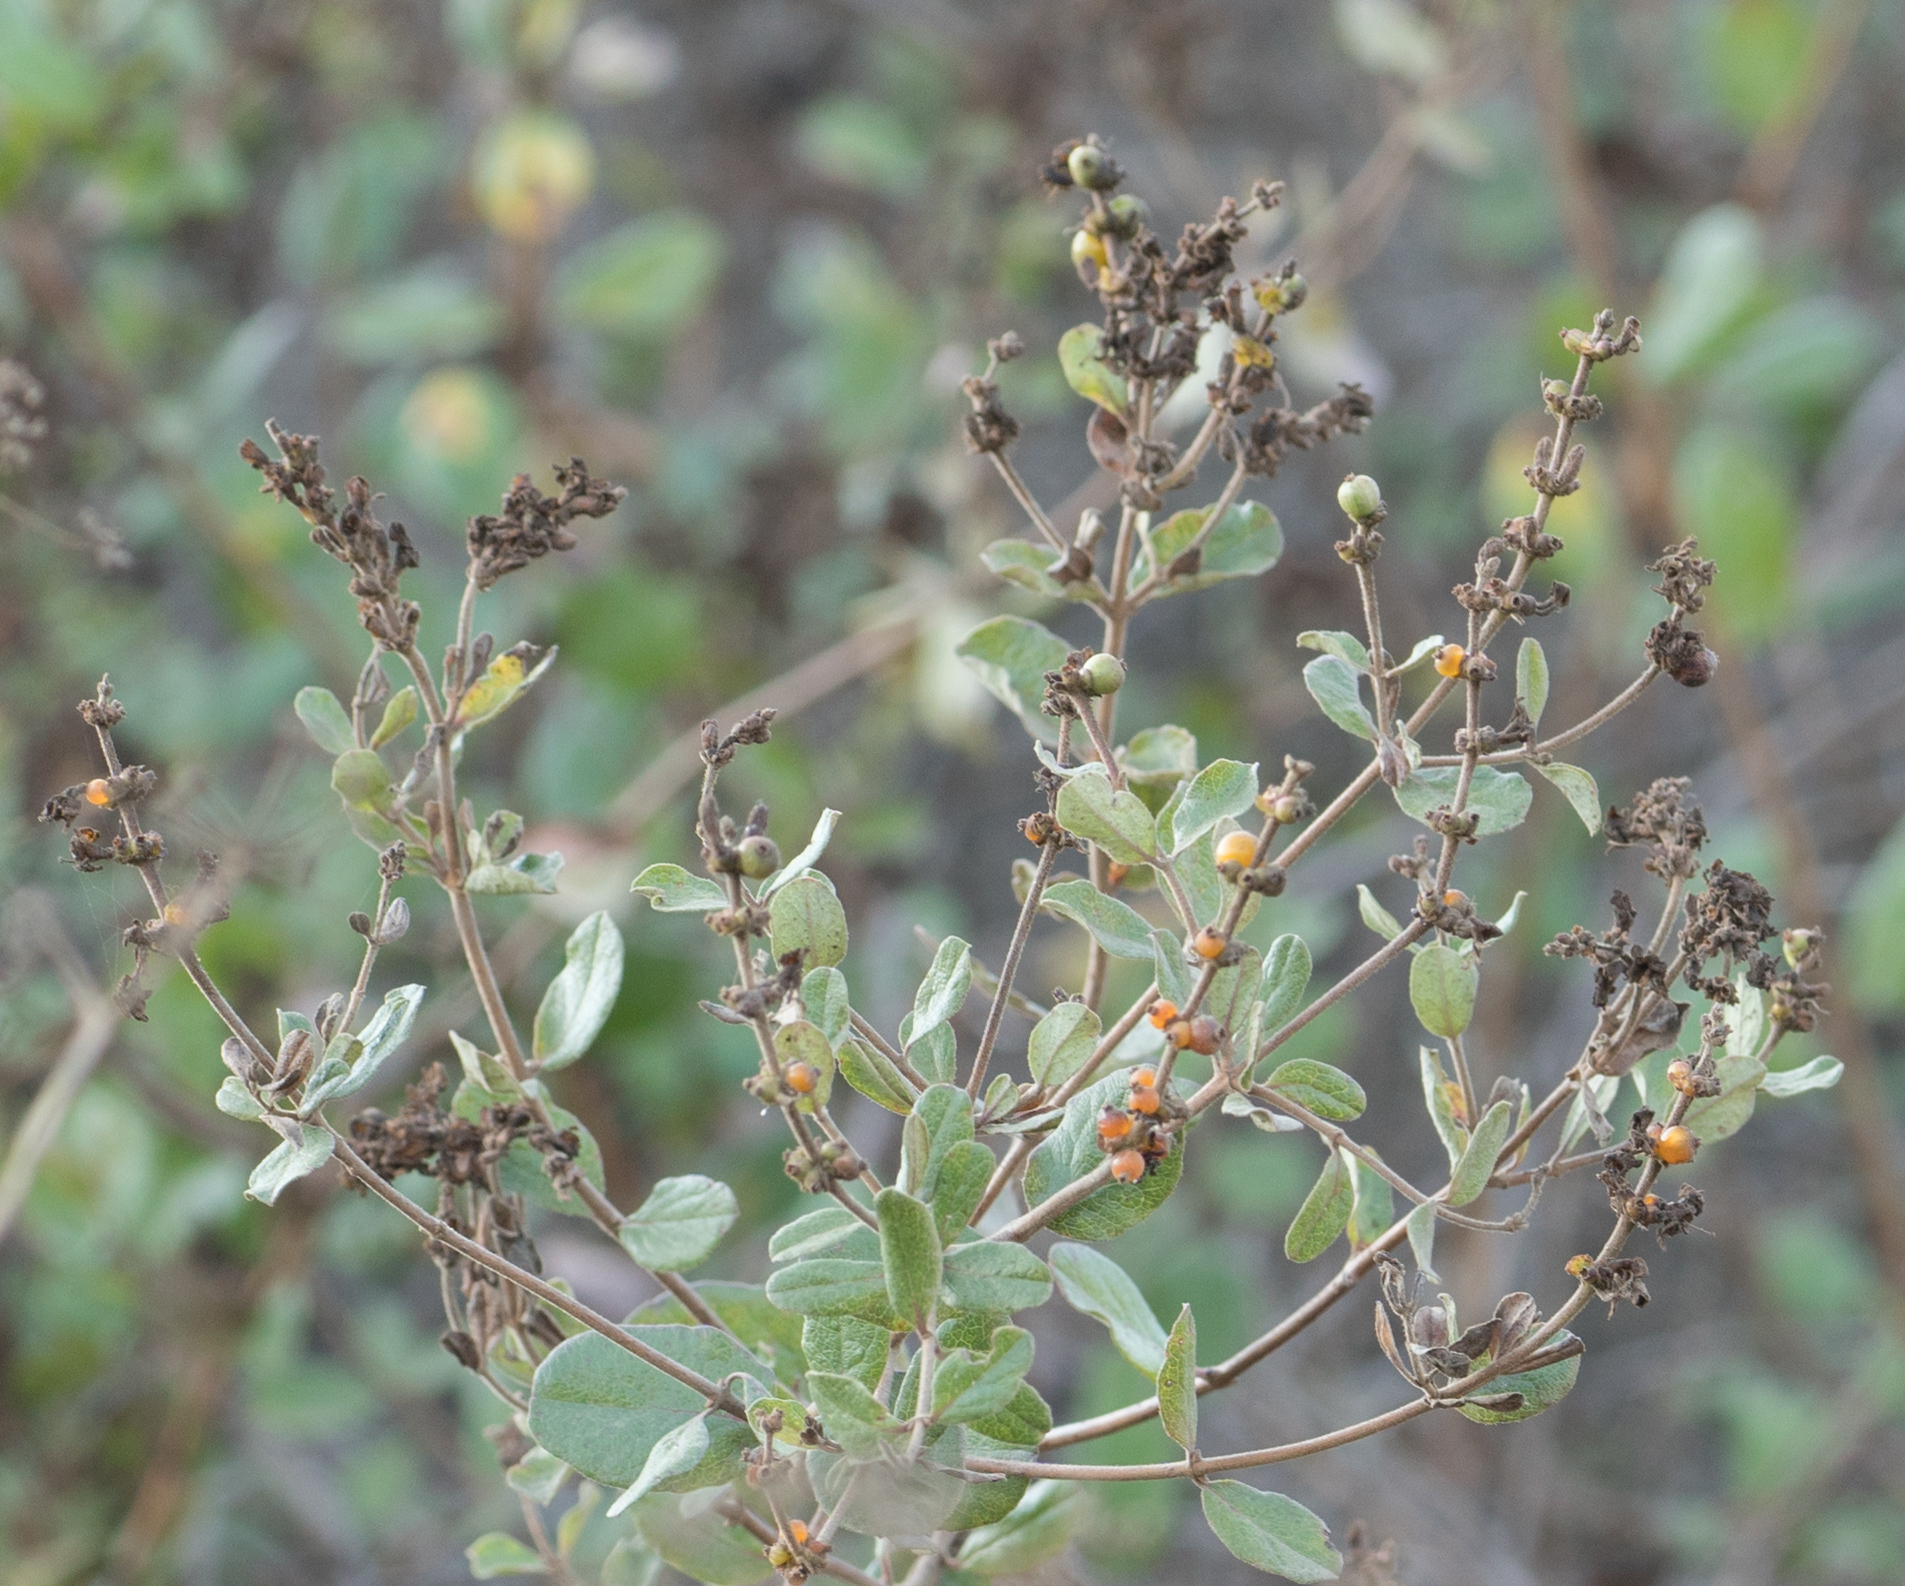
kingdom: Plantae
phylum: Tracheophyta
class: Magnoliopsida
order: Dipsacales
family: Caprifoliaceae
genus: Lonicera
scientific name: Lonicera subspicata
